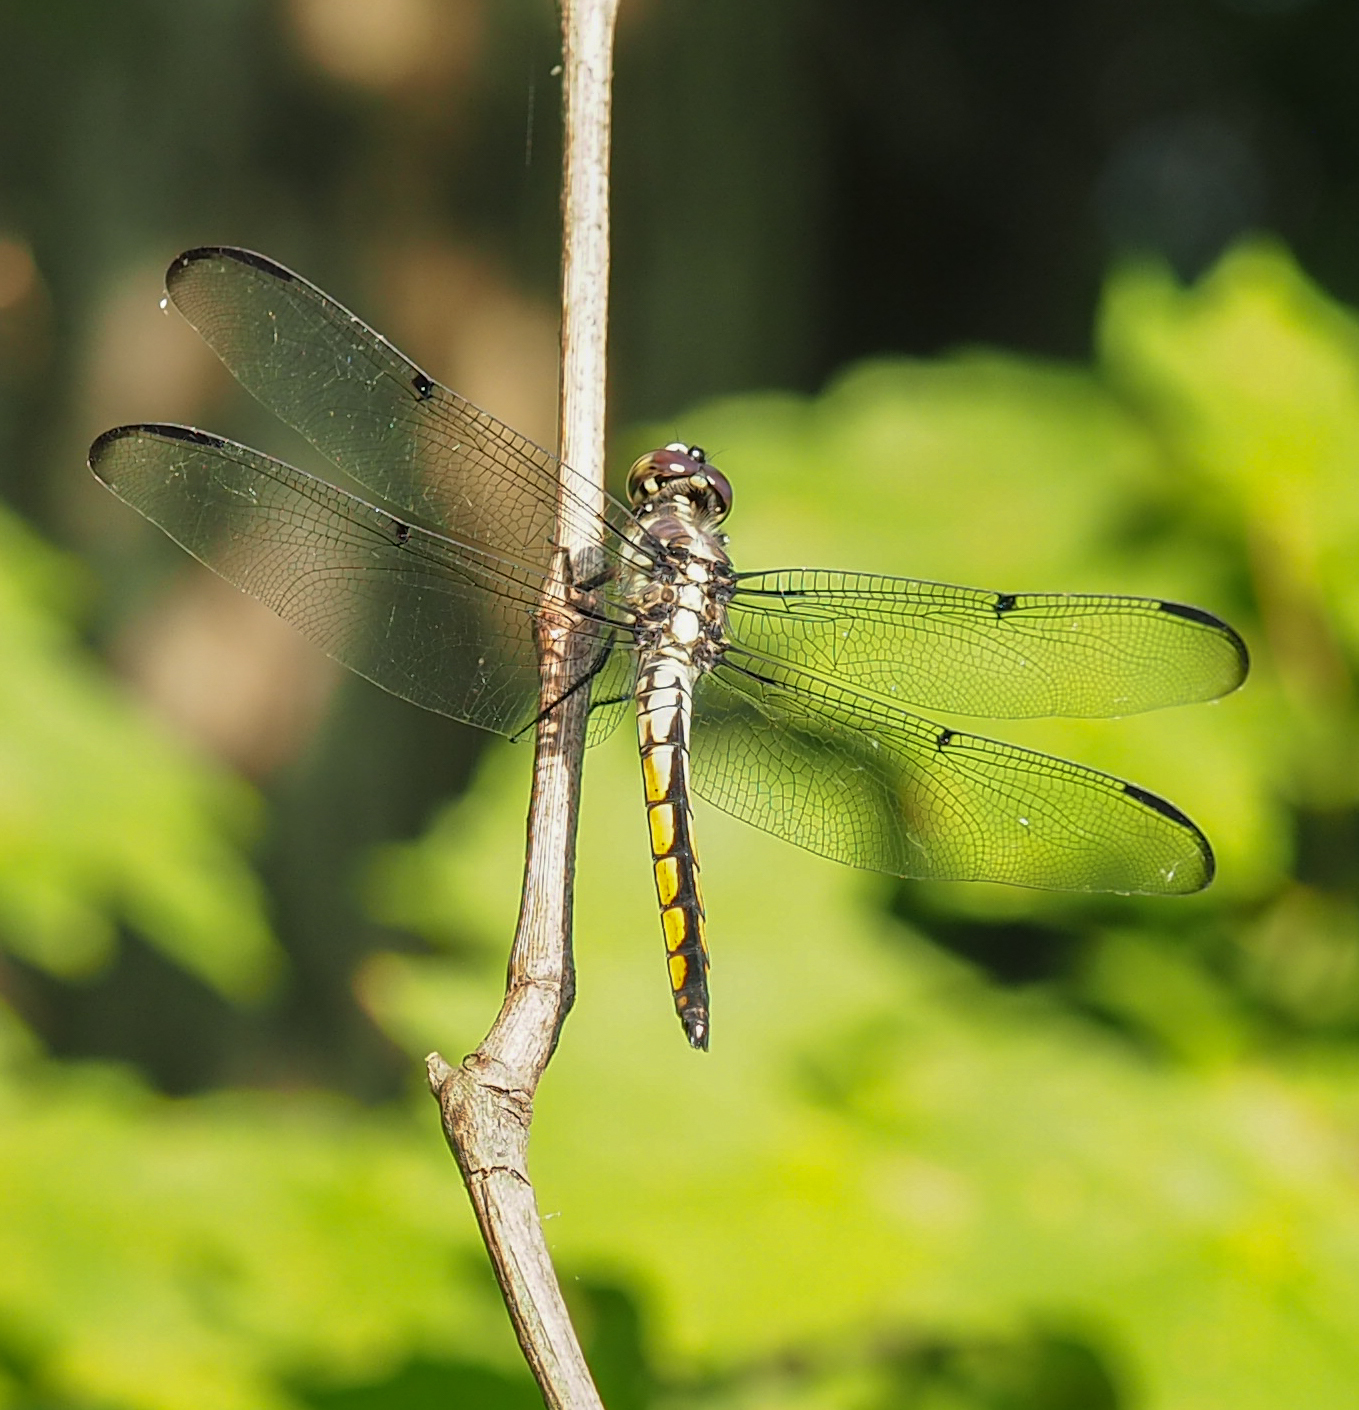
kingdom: Animalia
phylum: Arthropoda
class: Insecta
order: Odonata
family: Libellulidae
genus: Libellula
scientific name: Libellula vibrans
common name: Great blue skimmer
